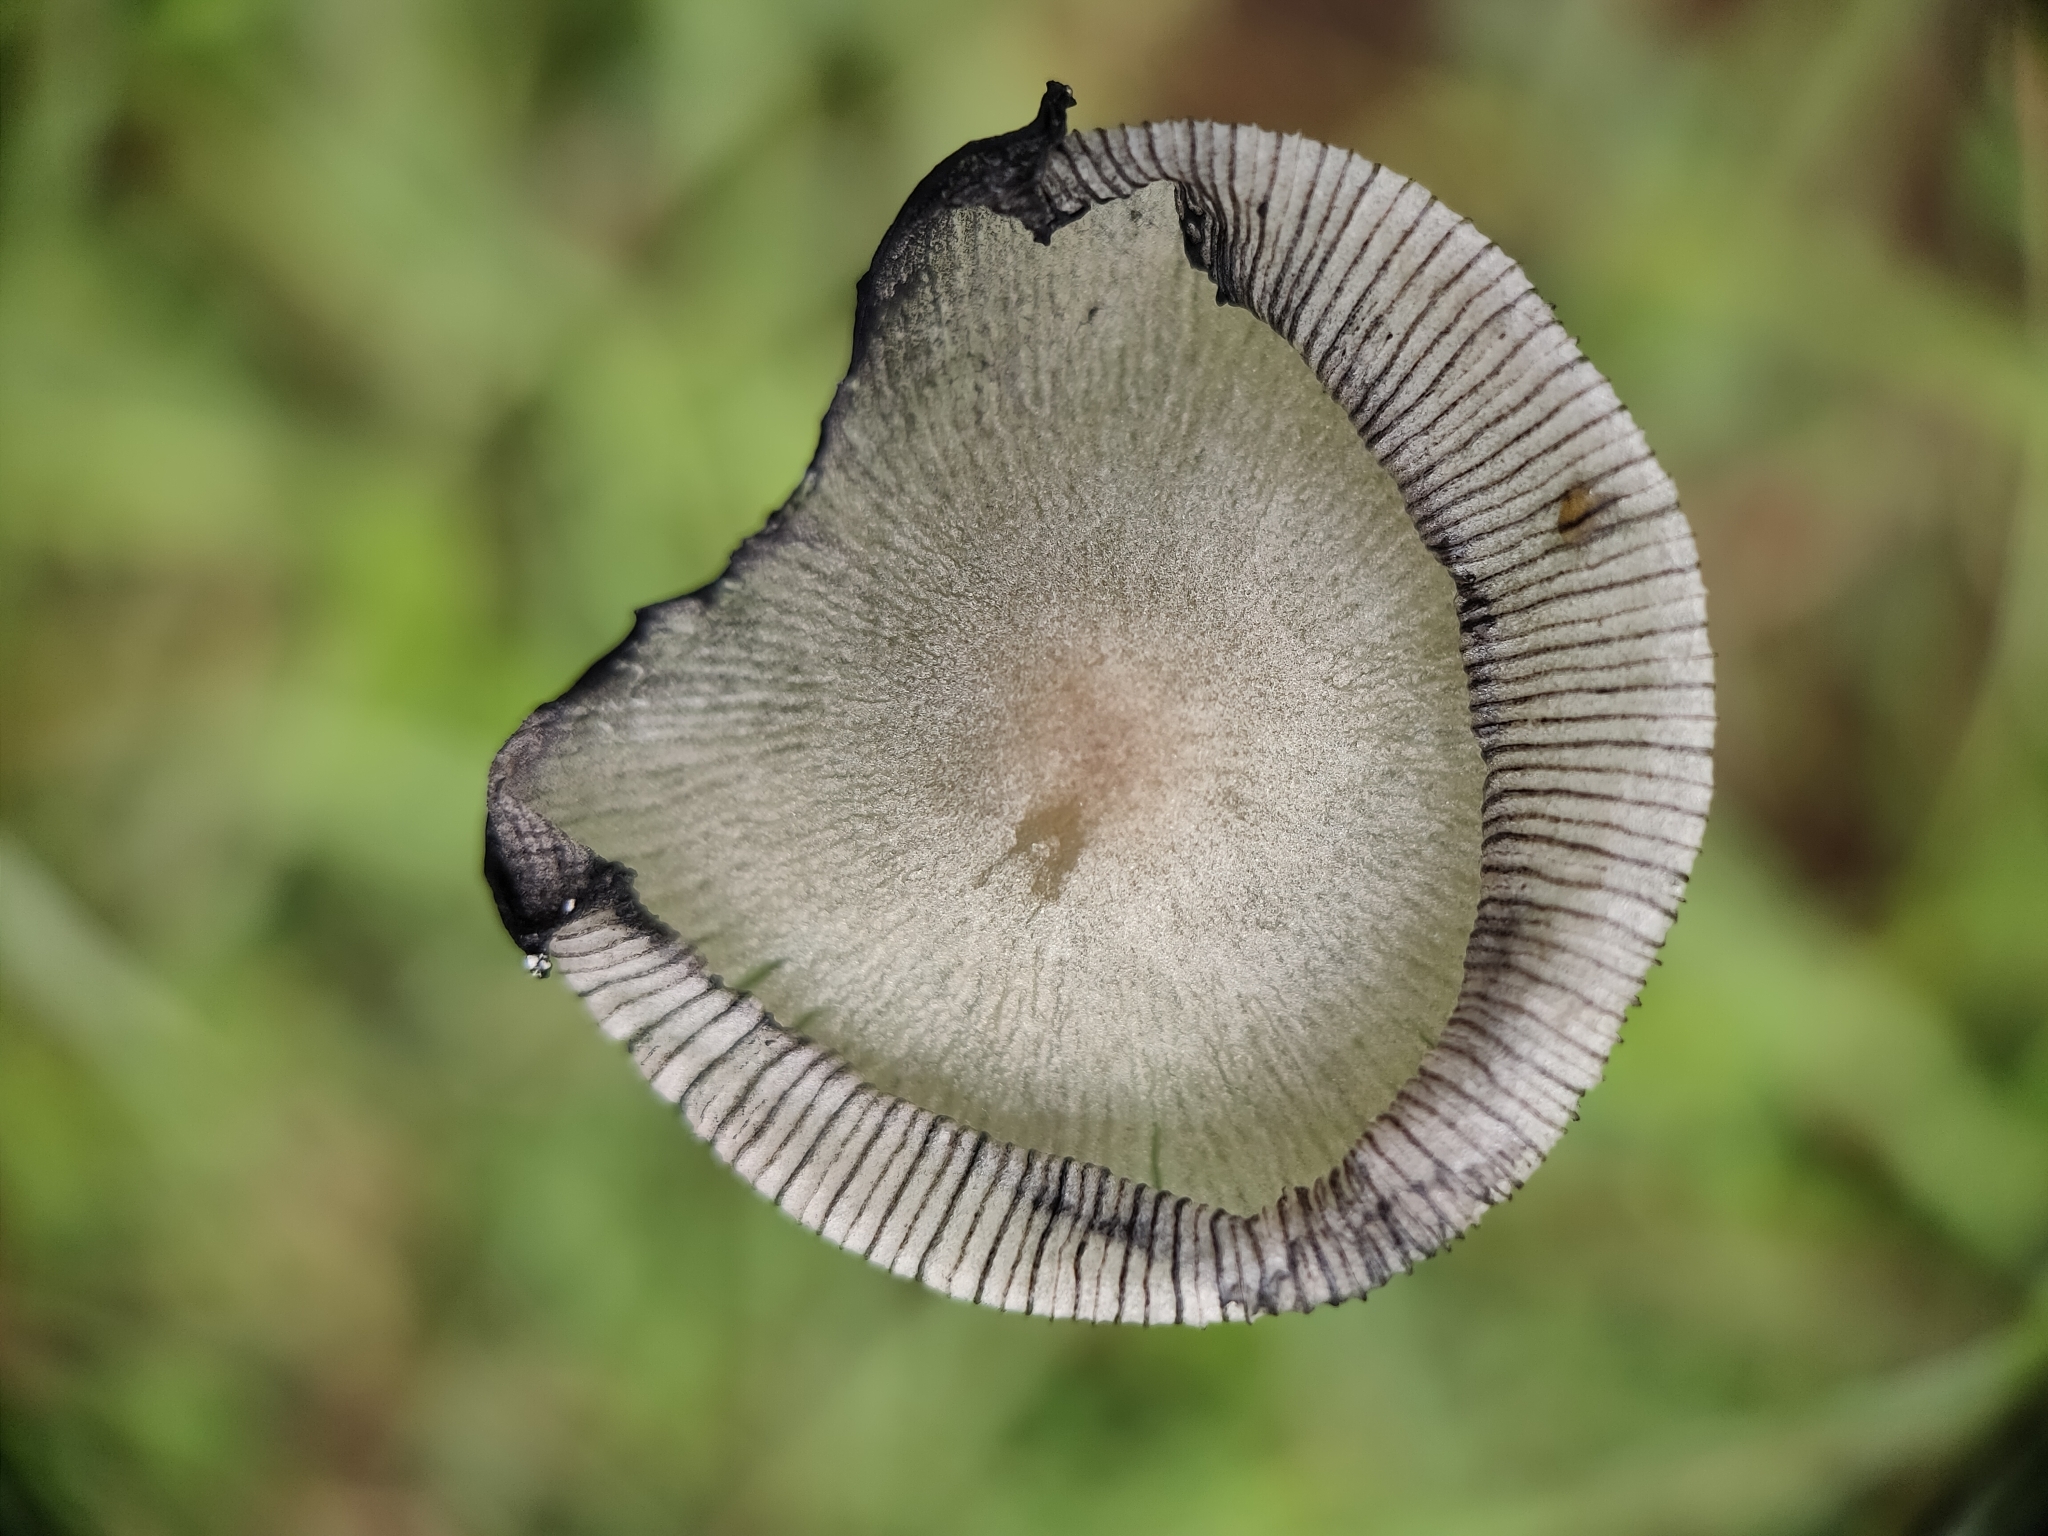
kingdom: Fungi
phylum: Basidiomycota
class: Agaricomycetes
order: Agaricales
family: Psathyrellaceae
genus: Coprinopsis
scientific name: Coprinopsis lagopus
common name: Hare'sfoot inkcap
